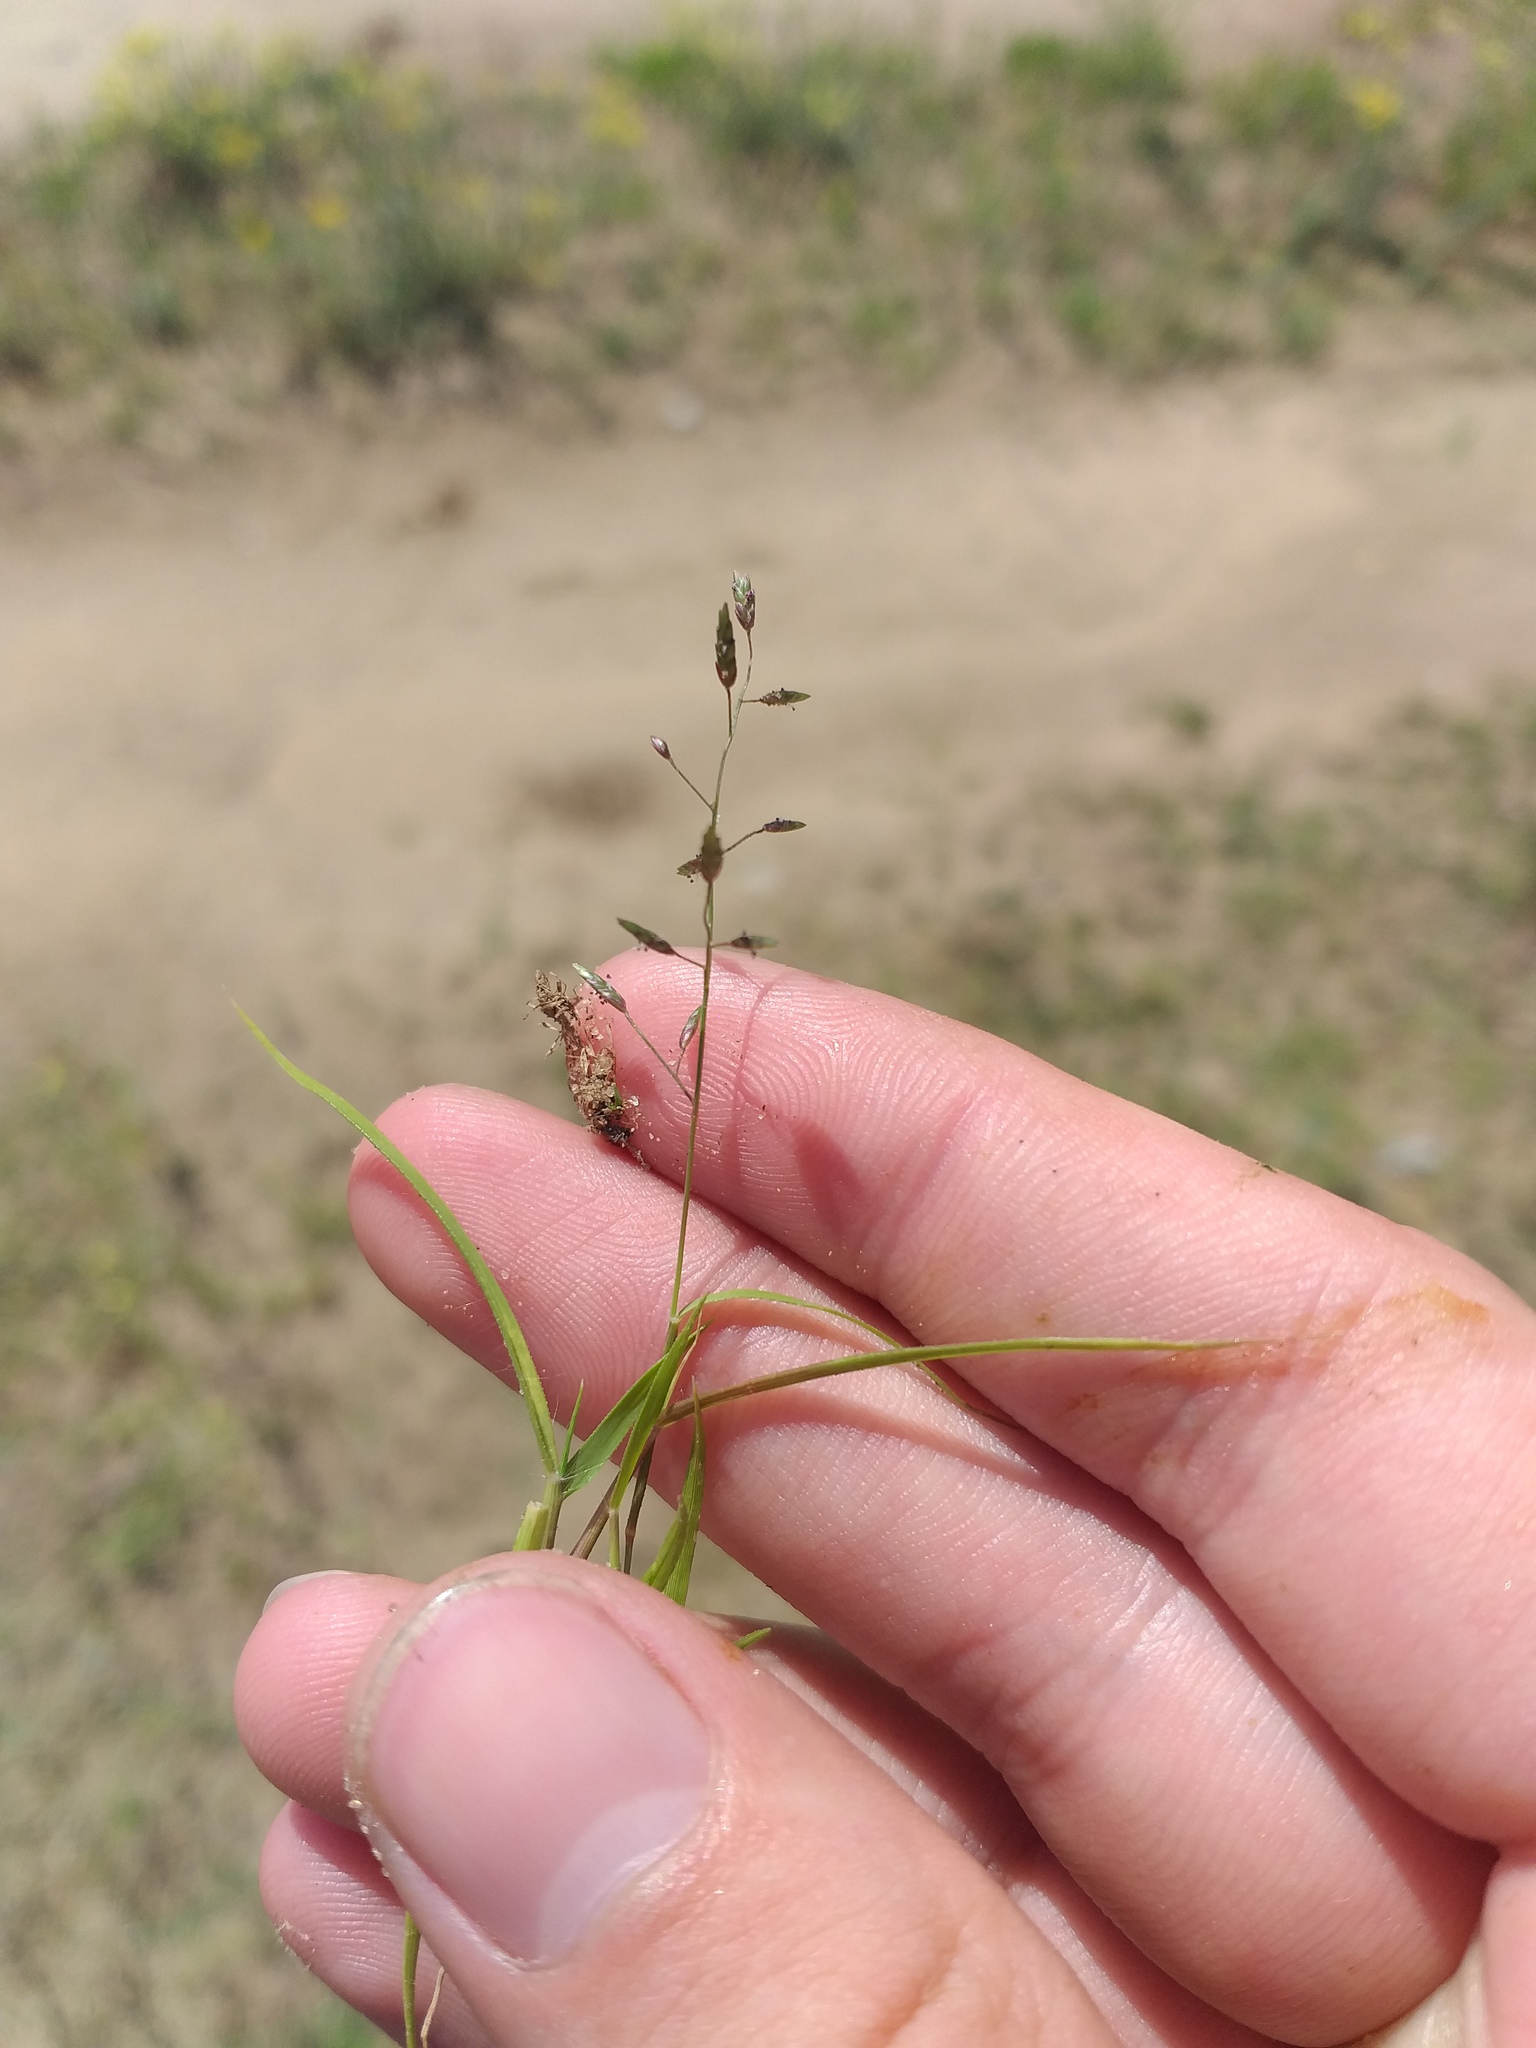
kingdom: Plantae
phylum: Tracheophyta
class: Liliopsida
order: Poales
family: Poaceae
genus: Eragrostis
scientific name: Eragrostis minor
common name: Small love-grass
